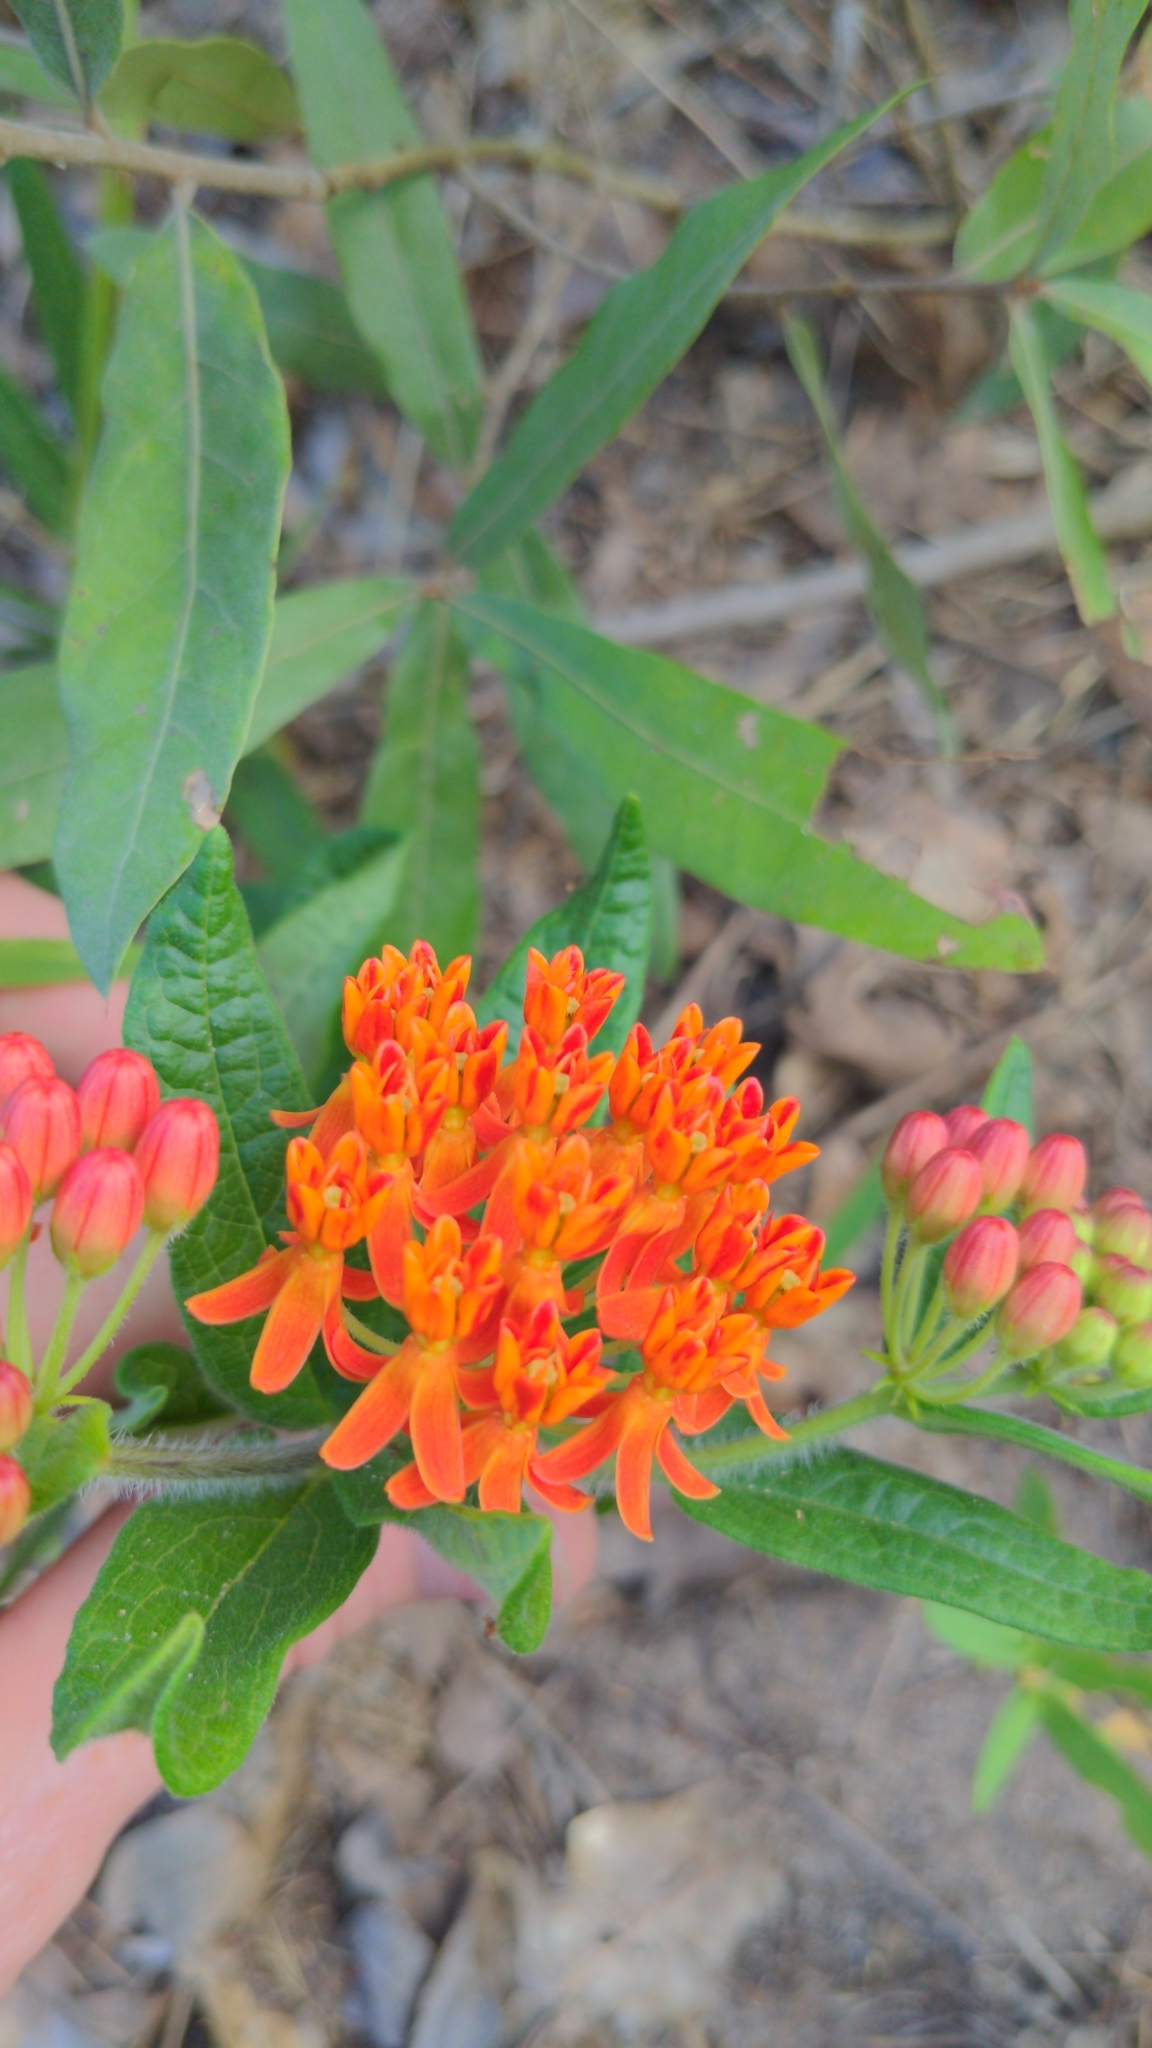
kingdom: Plantae
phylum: Tracheophyta
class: Magnoliopsida
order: Gentianales
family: Apocynaceae
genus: Asclepias
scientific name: Asclepias tuberosa
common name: Butterfly milkweed
